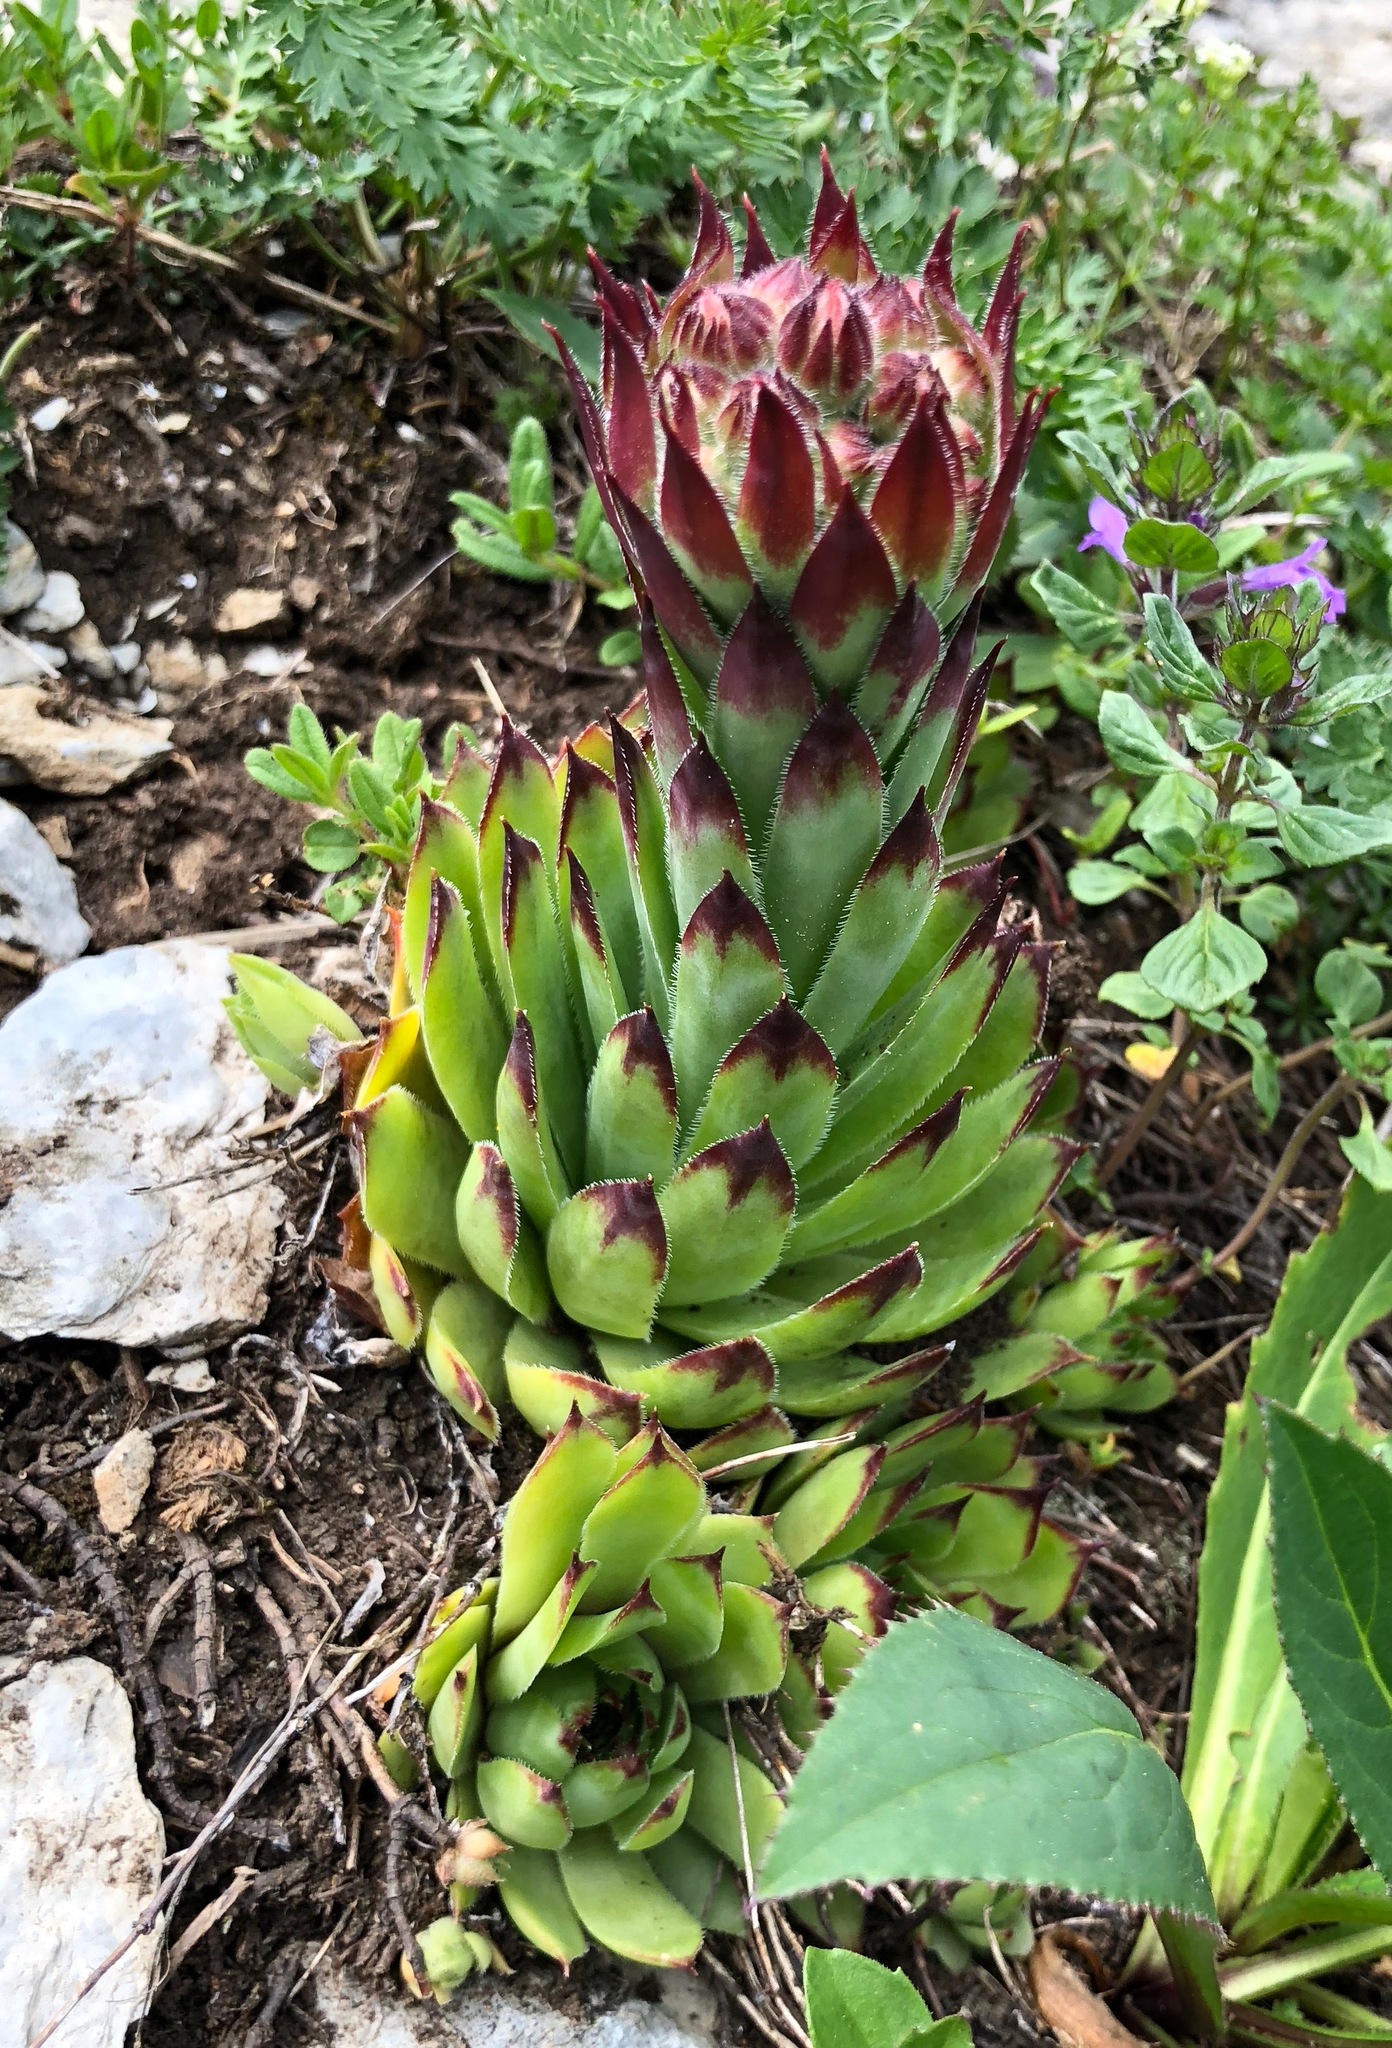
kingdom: Plantae
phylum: Tracheophyta
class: Magnoliopsida
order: Saxifragales
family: Crassulaceae
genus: Sempervivum
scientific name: Sempervivum tectorum
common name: House-leek
